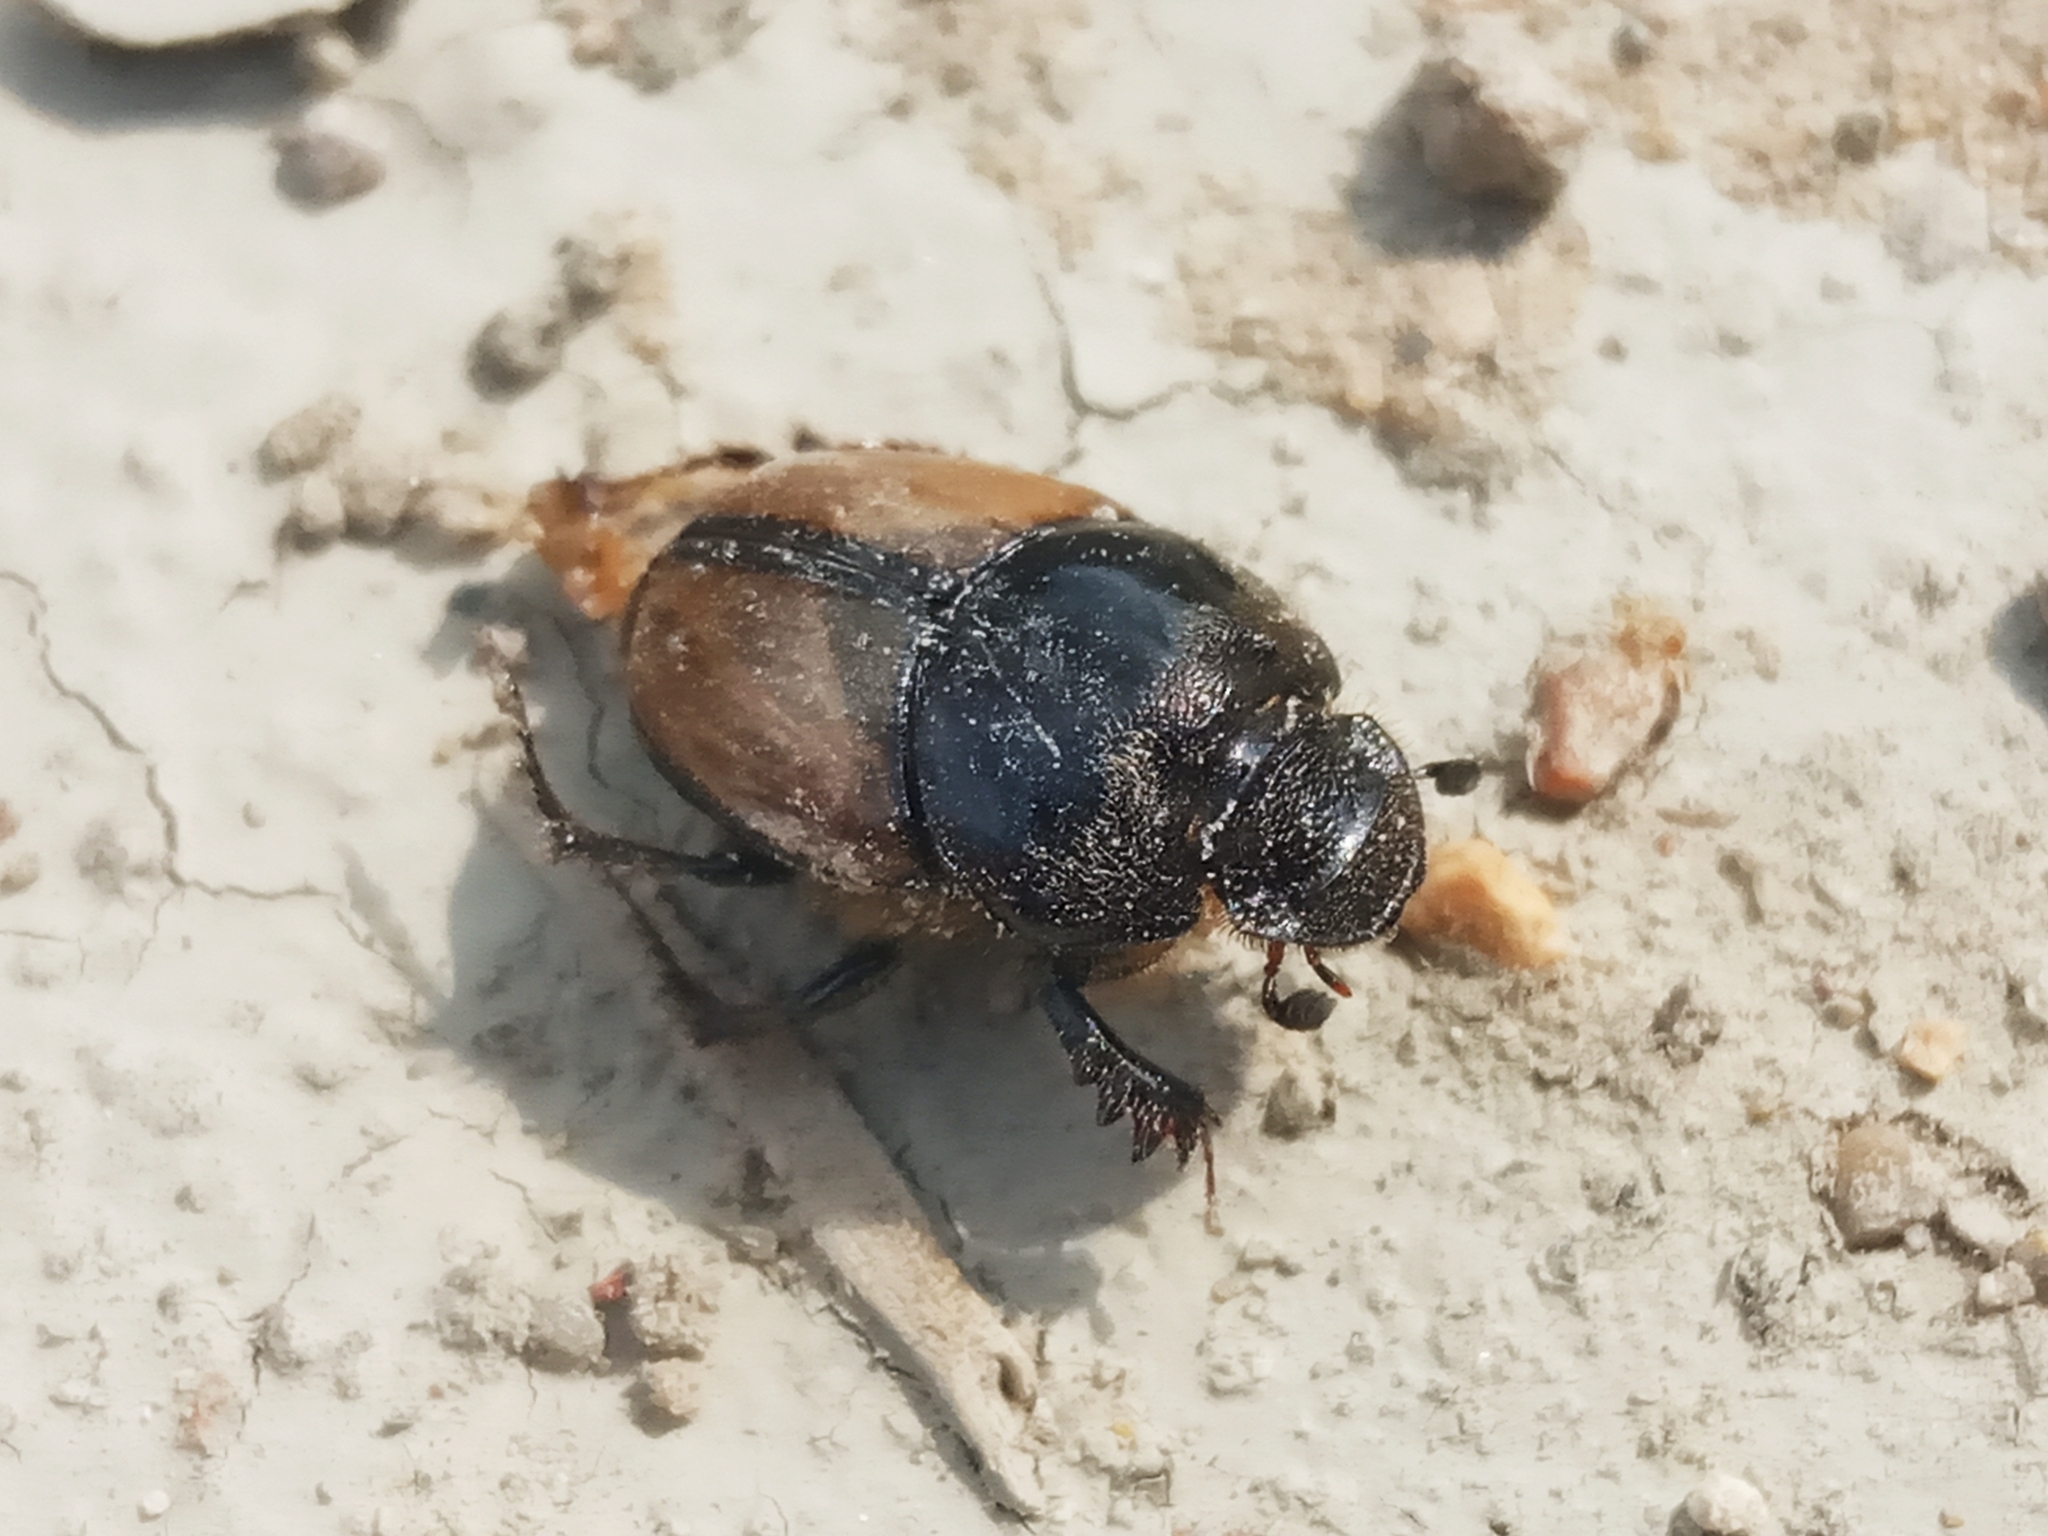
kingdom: Animalia
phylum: Arthropoda
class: Insecta
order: Coleoptera
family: Scarabaeidae
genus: Onthophagus
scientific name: Onthophagus lucidus
